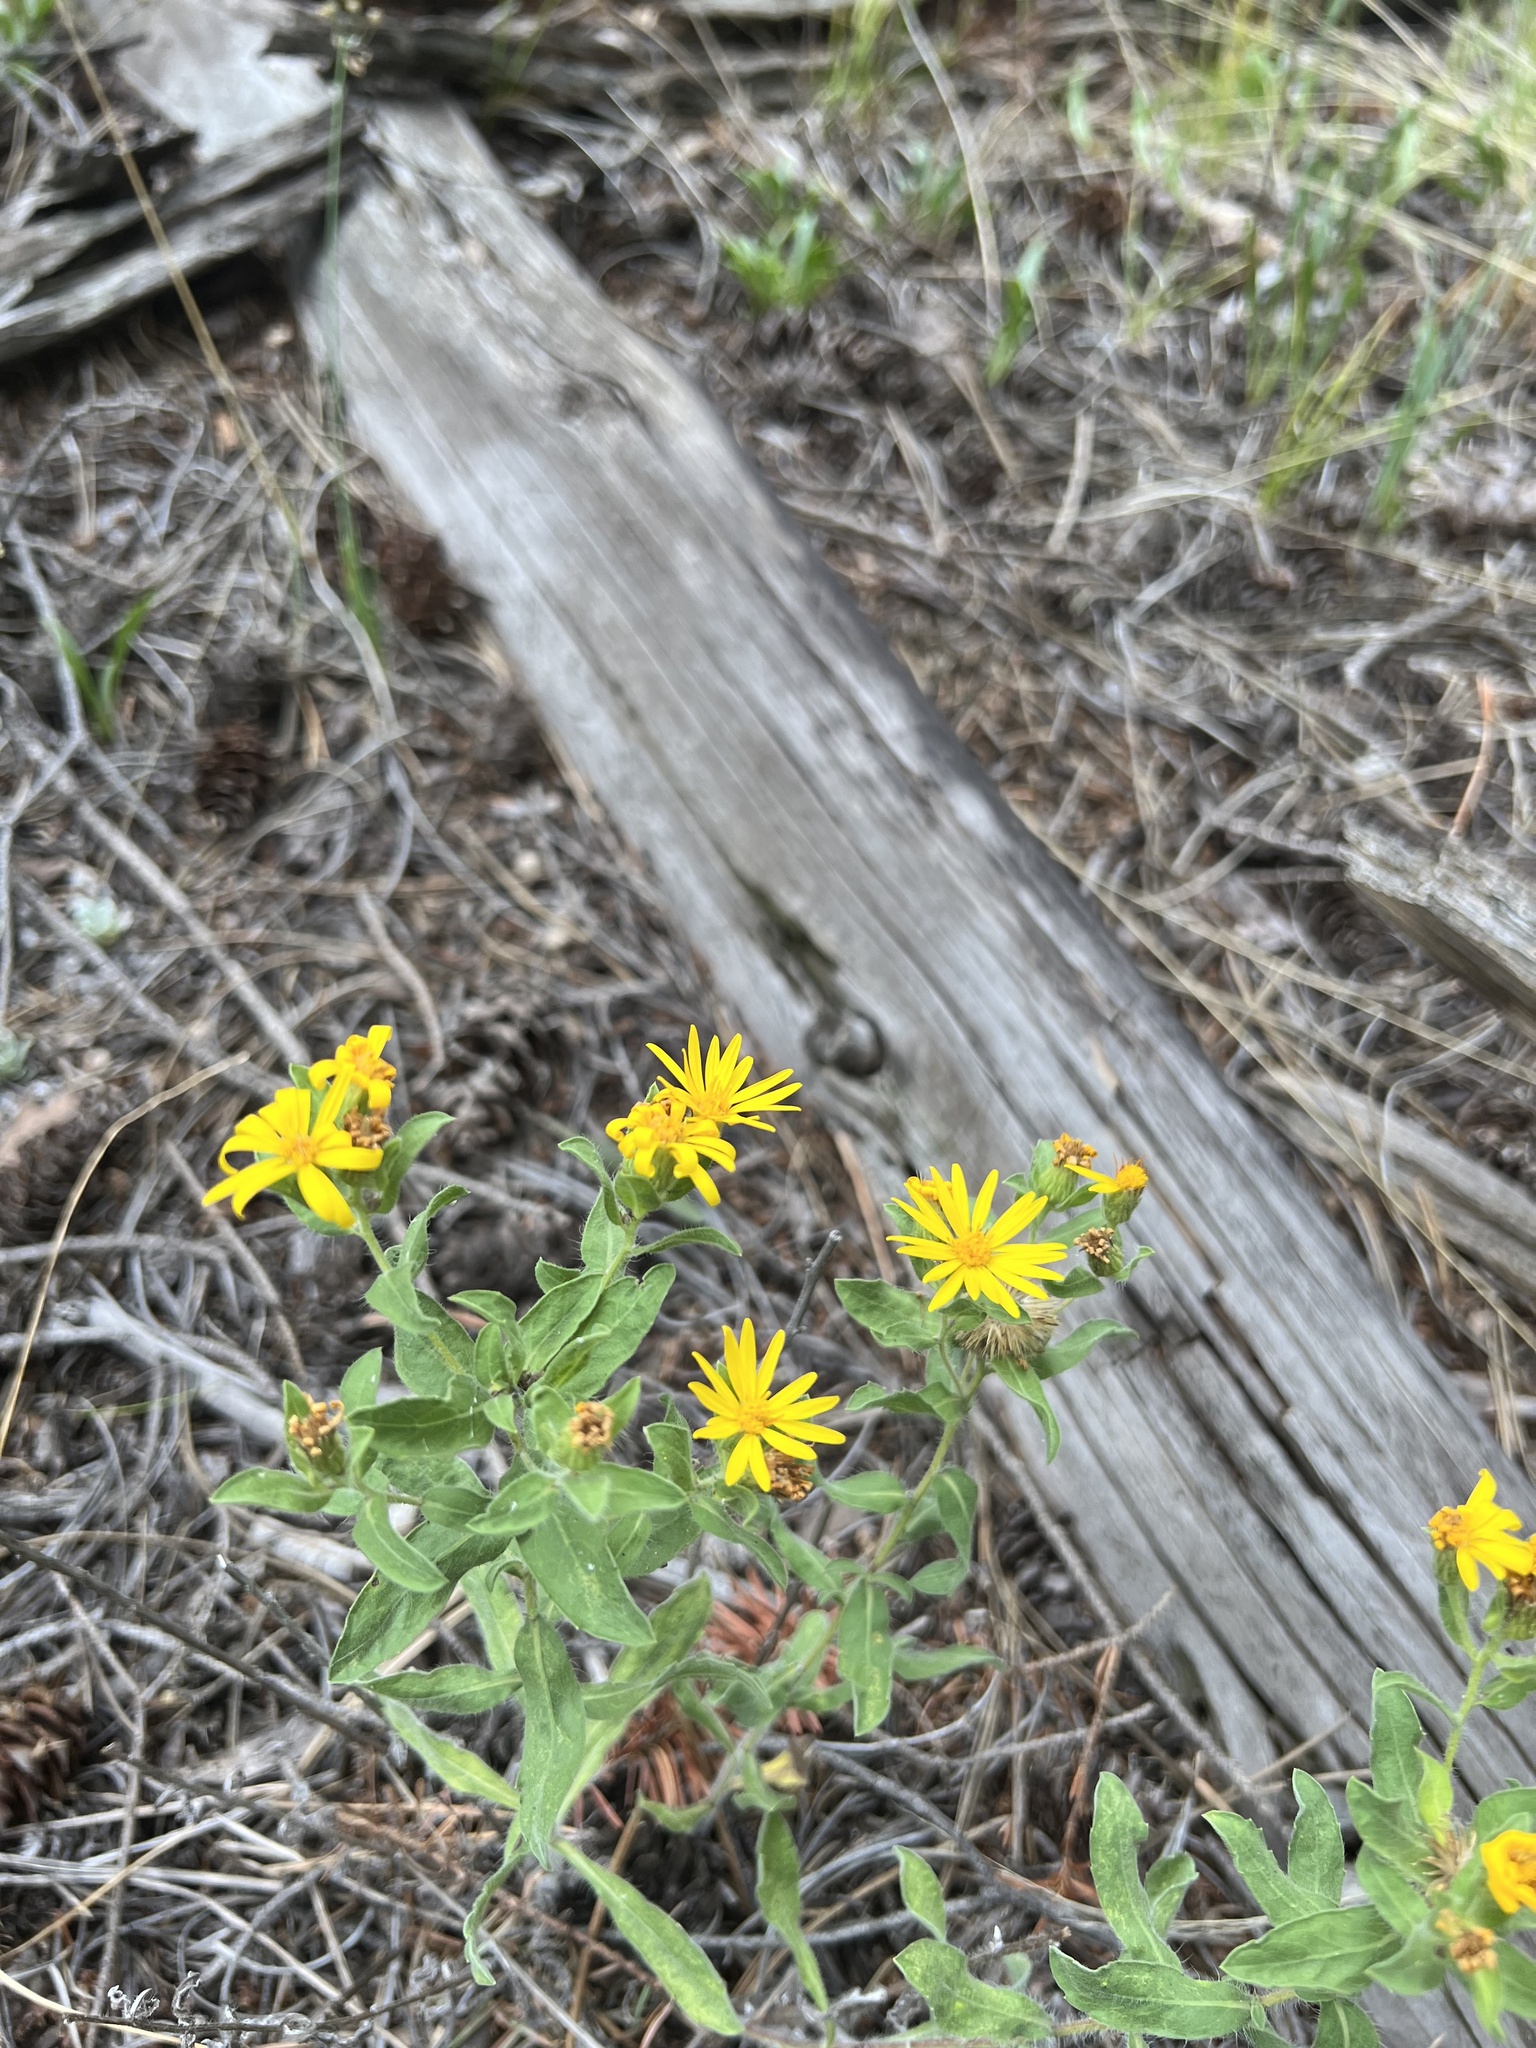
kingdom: Plantae
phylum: Tracheophyta
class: Magnoliopsida
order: Asterales
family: Asteraceae
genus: Heterotheca
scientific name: Heterotheca villosa
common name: Hairy false goldenaster
